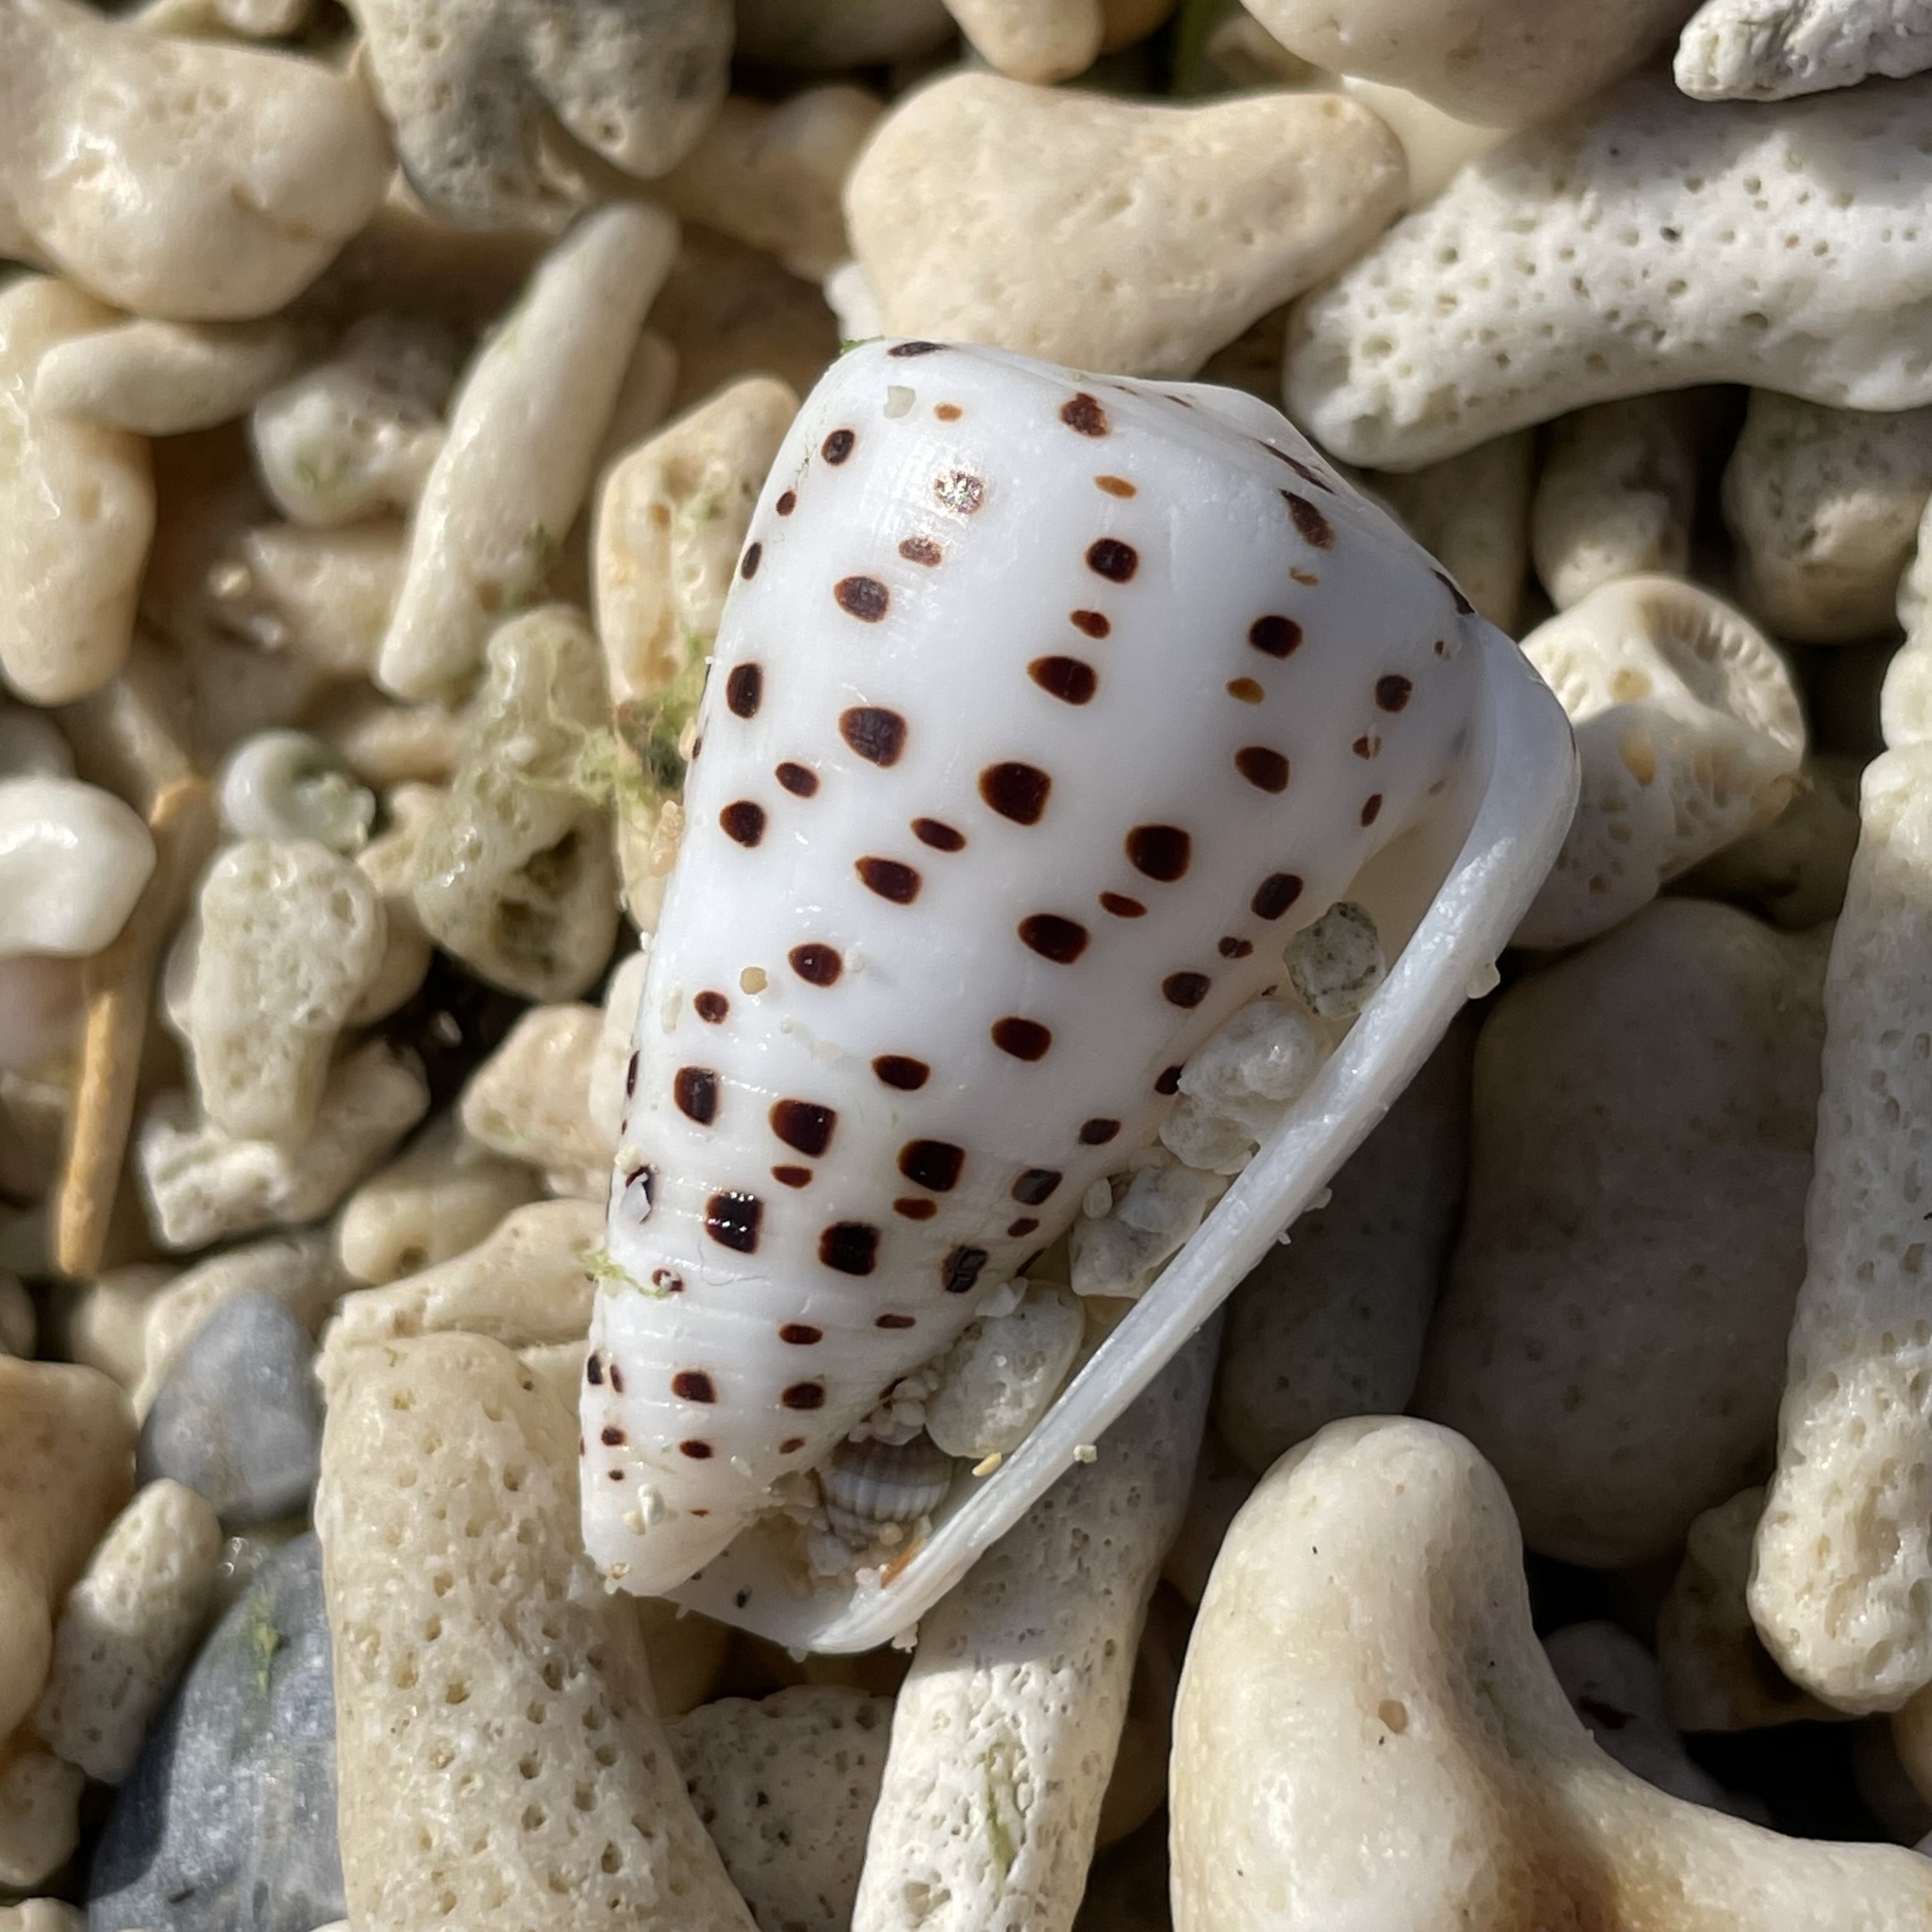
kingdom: Animalia
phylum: Mollusca
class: Gastropoda
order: Neogastropoda
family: Conidae
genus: Conus
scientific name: Conus eburneus
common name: Ivory cone
